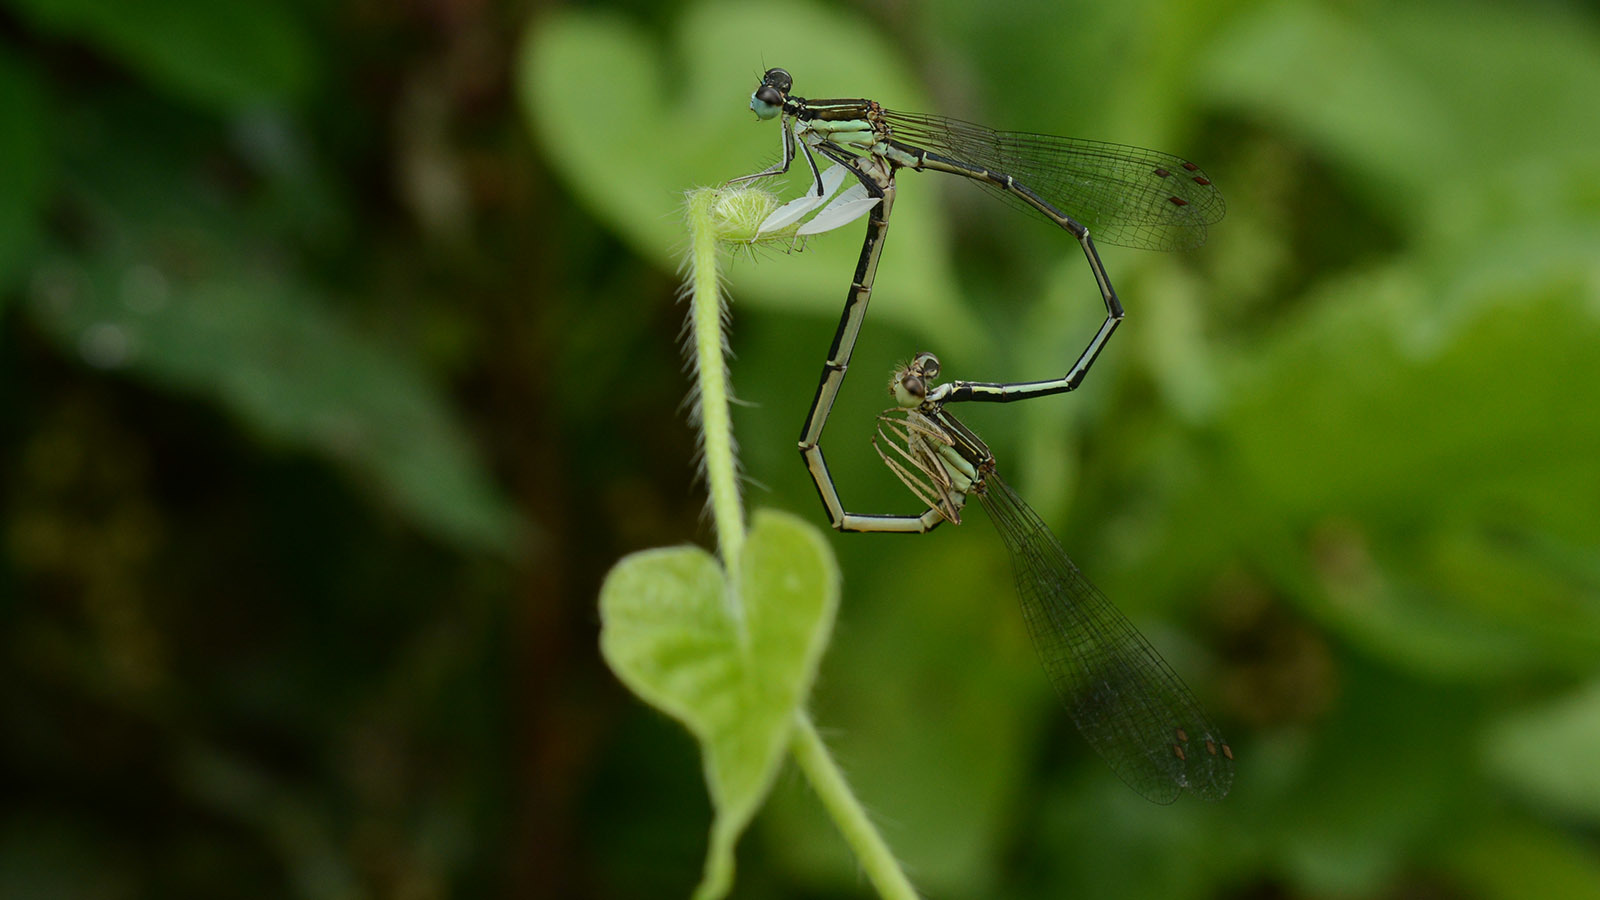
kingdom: Animalia
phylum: Arthropoda
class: Insecta
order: Odonata
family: Platycnemididae
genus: Platycnemis
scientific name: Platycnemis phyllopoda
